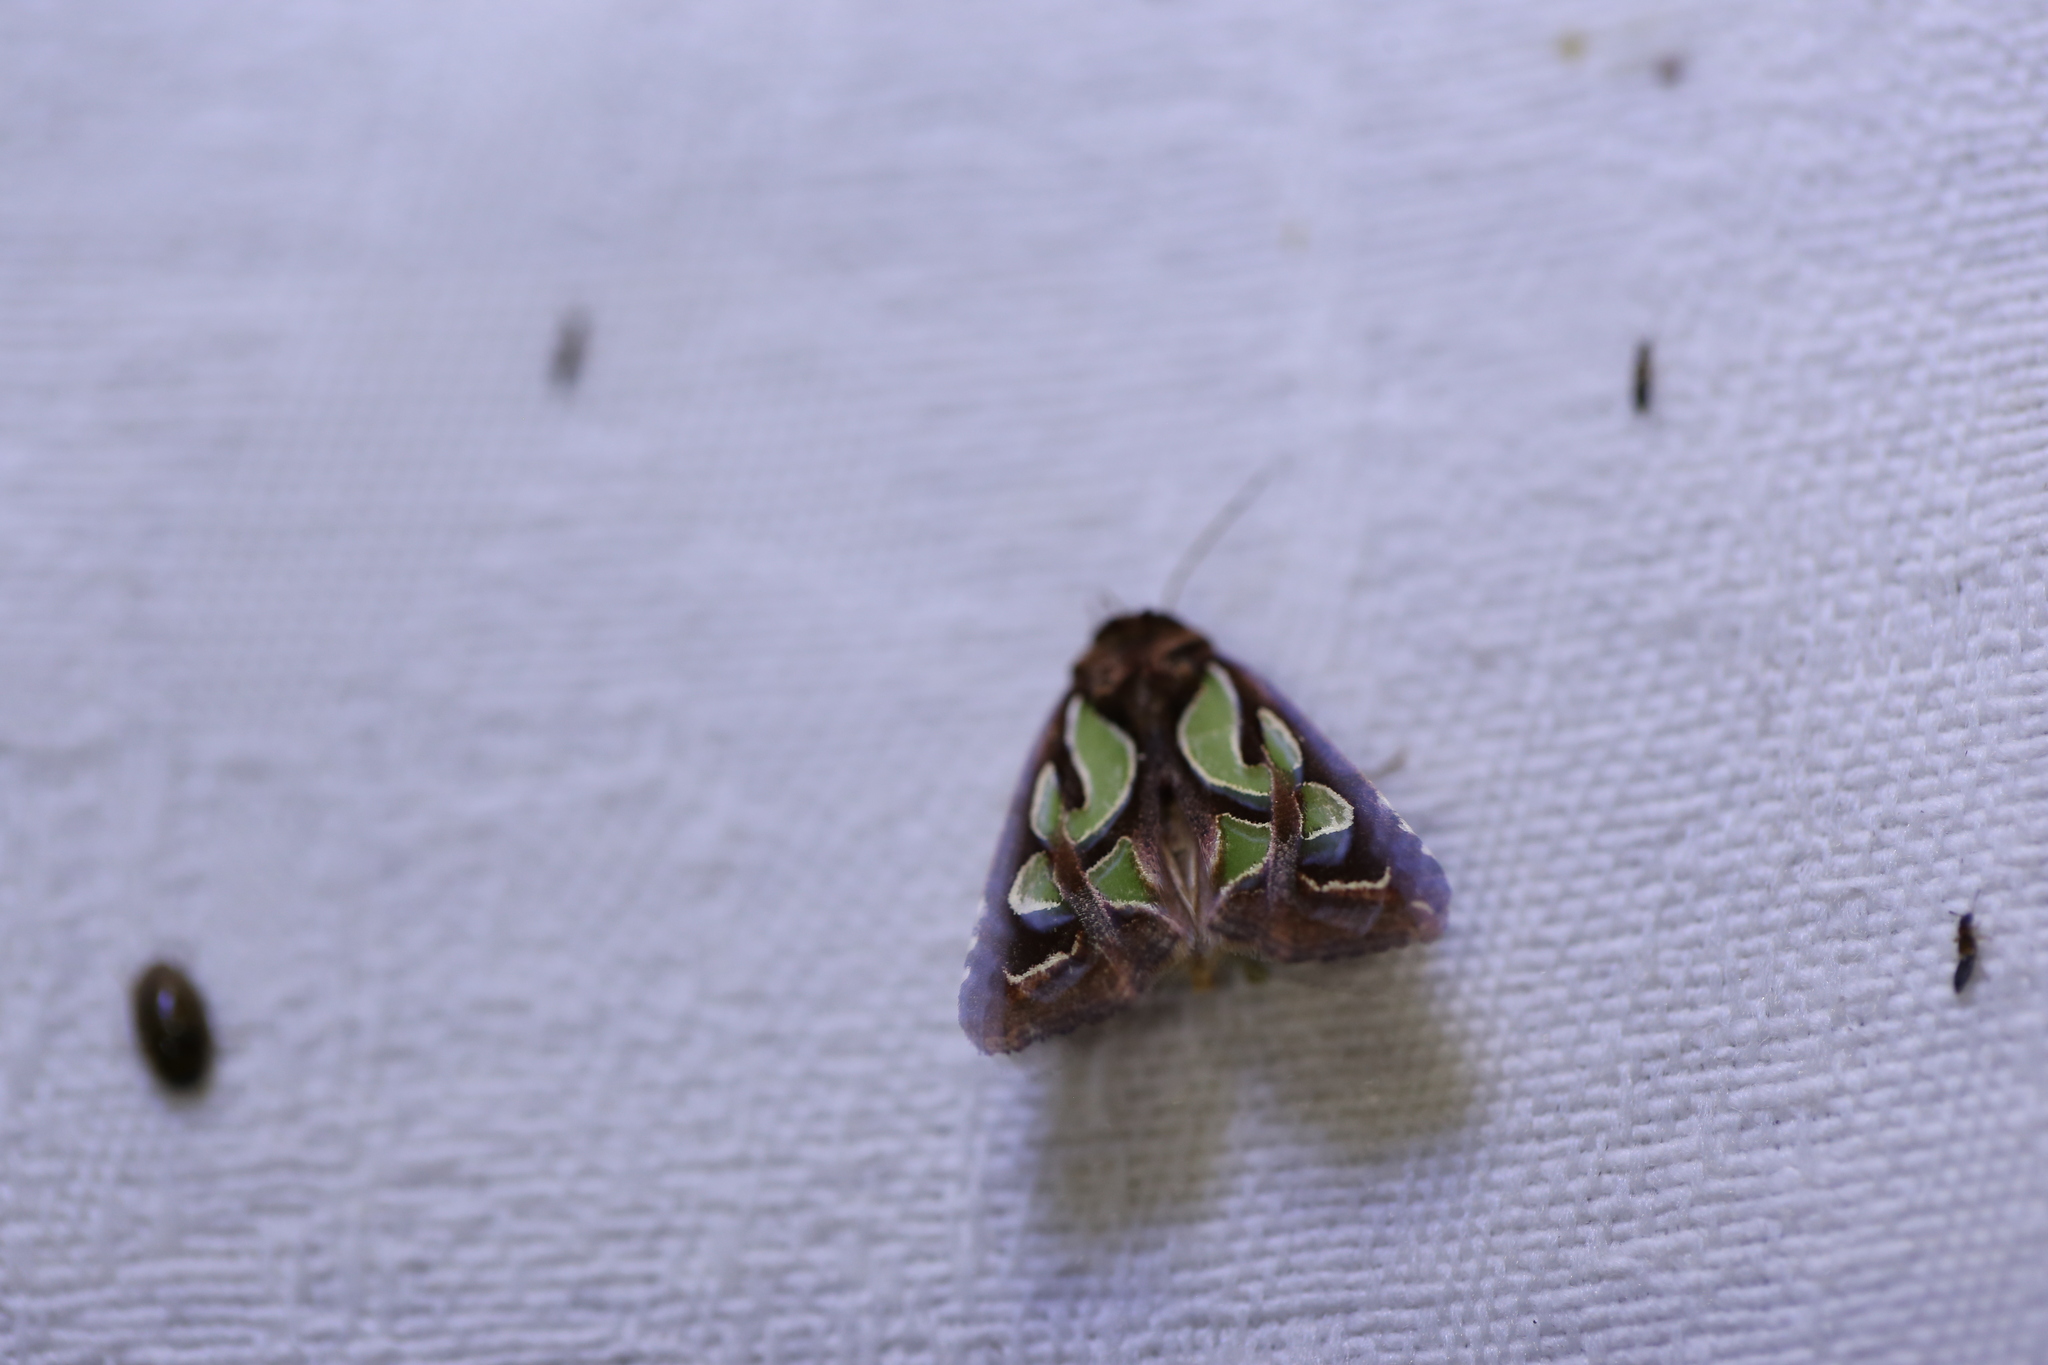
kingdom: Animalia
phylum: Arthropoda
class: Insecta
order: Lepidoptera
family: Noctuidae
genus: Cosmodes
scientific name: Cosmodes elegans
